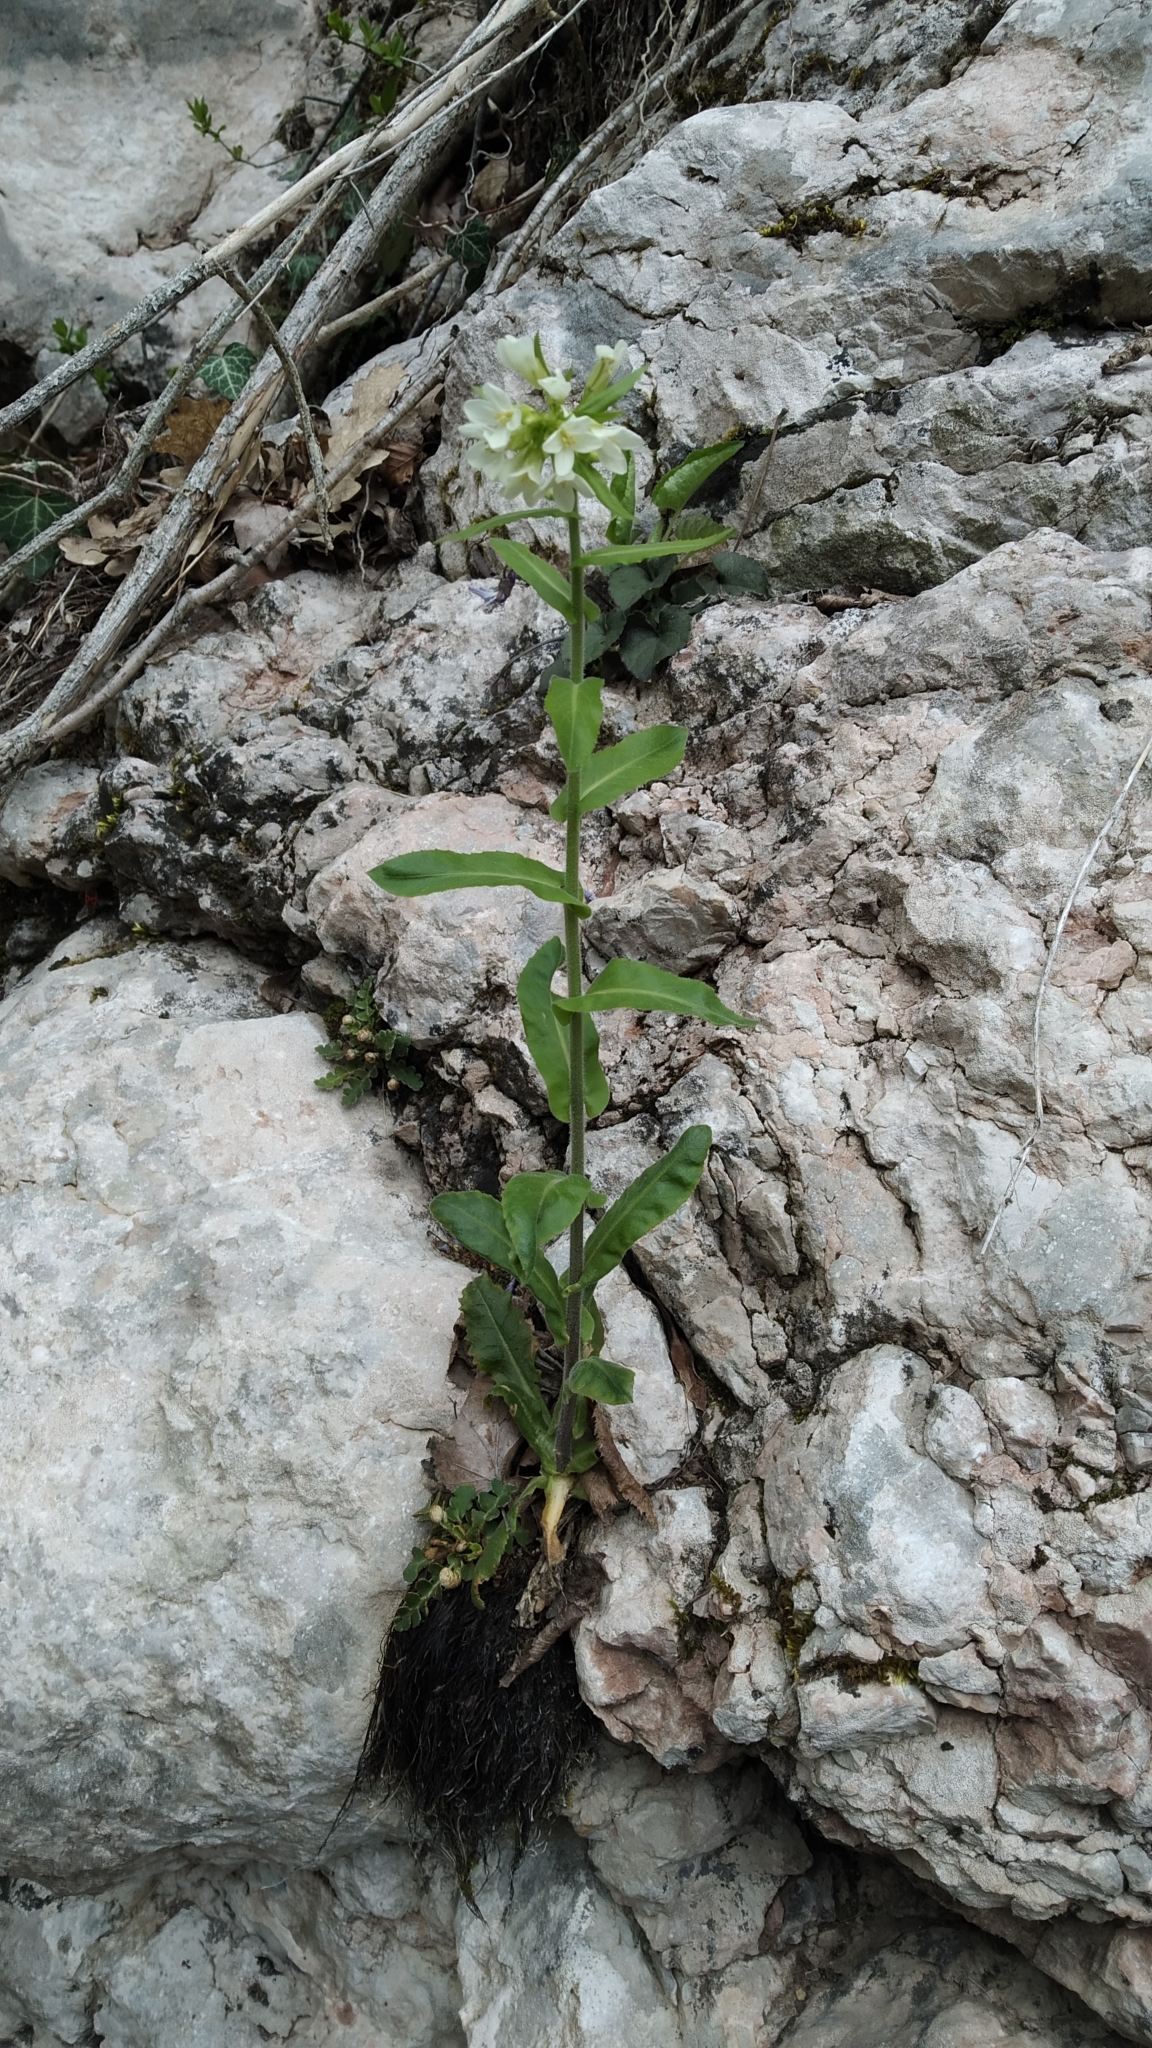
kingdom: Plantae
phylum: Tracheophyta
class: Magnoliopsida
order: Brassicales
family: Brassicaceae
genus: Pseudoturritis
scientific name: Pseudoturritis turrita
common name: Tower cress
